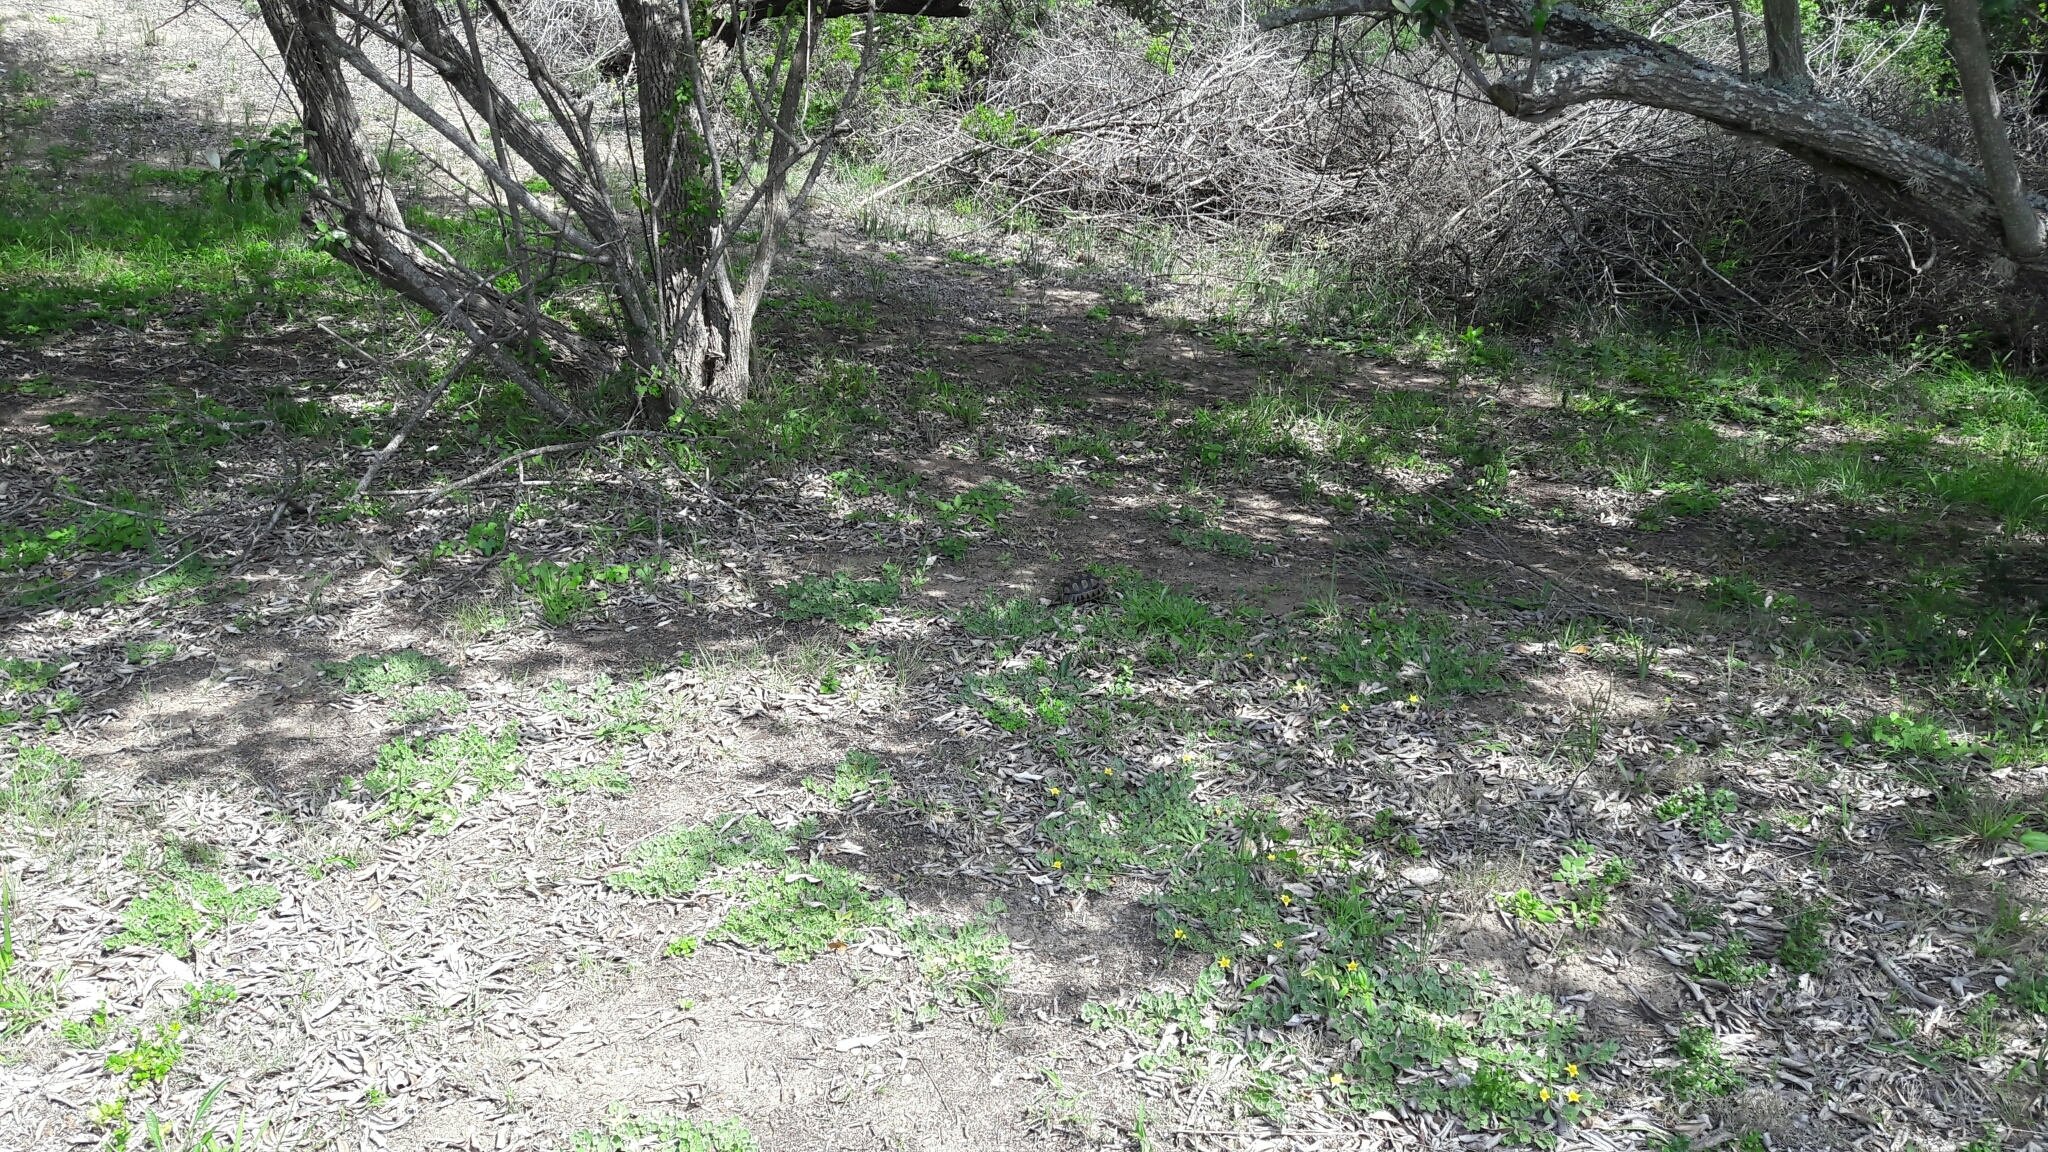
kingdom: Animalia
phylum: Chordata
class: Testudines
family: Testudinidae
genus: Chersina
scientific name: Chersina angulata
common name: South african bowsprit tortoise
